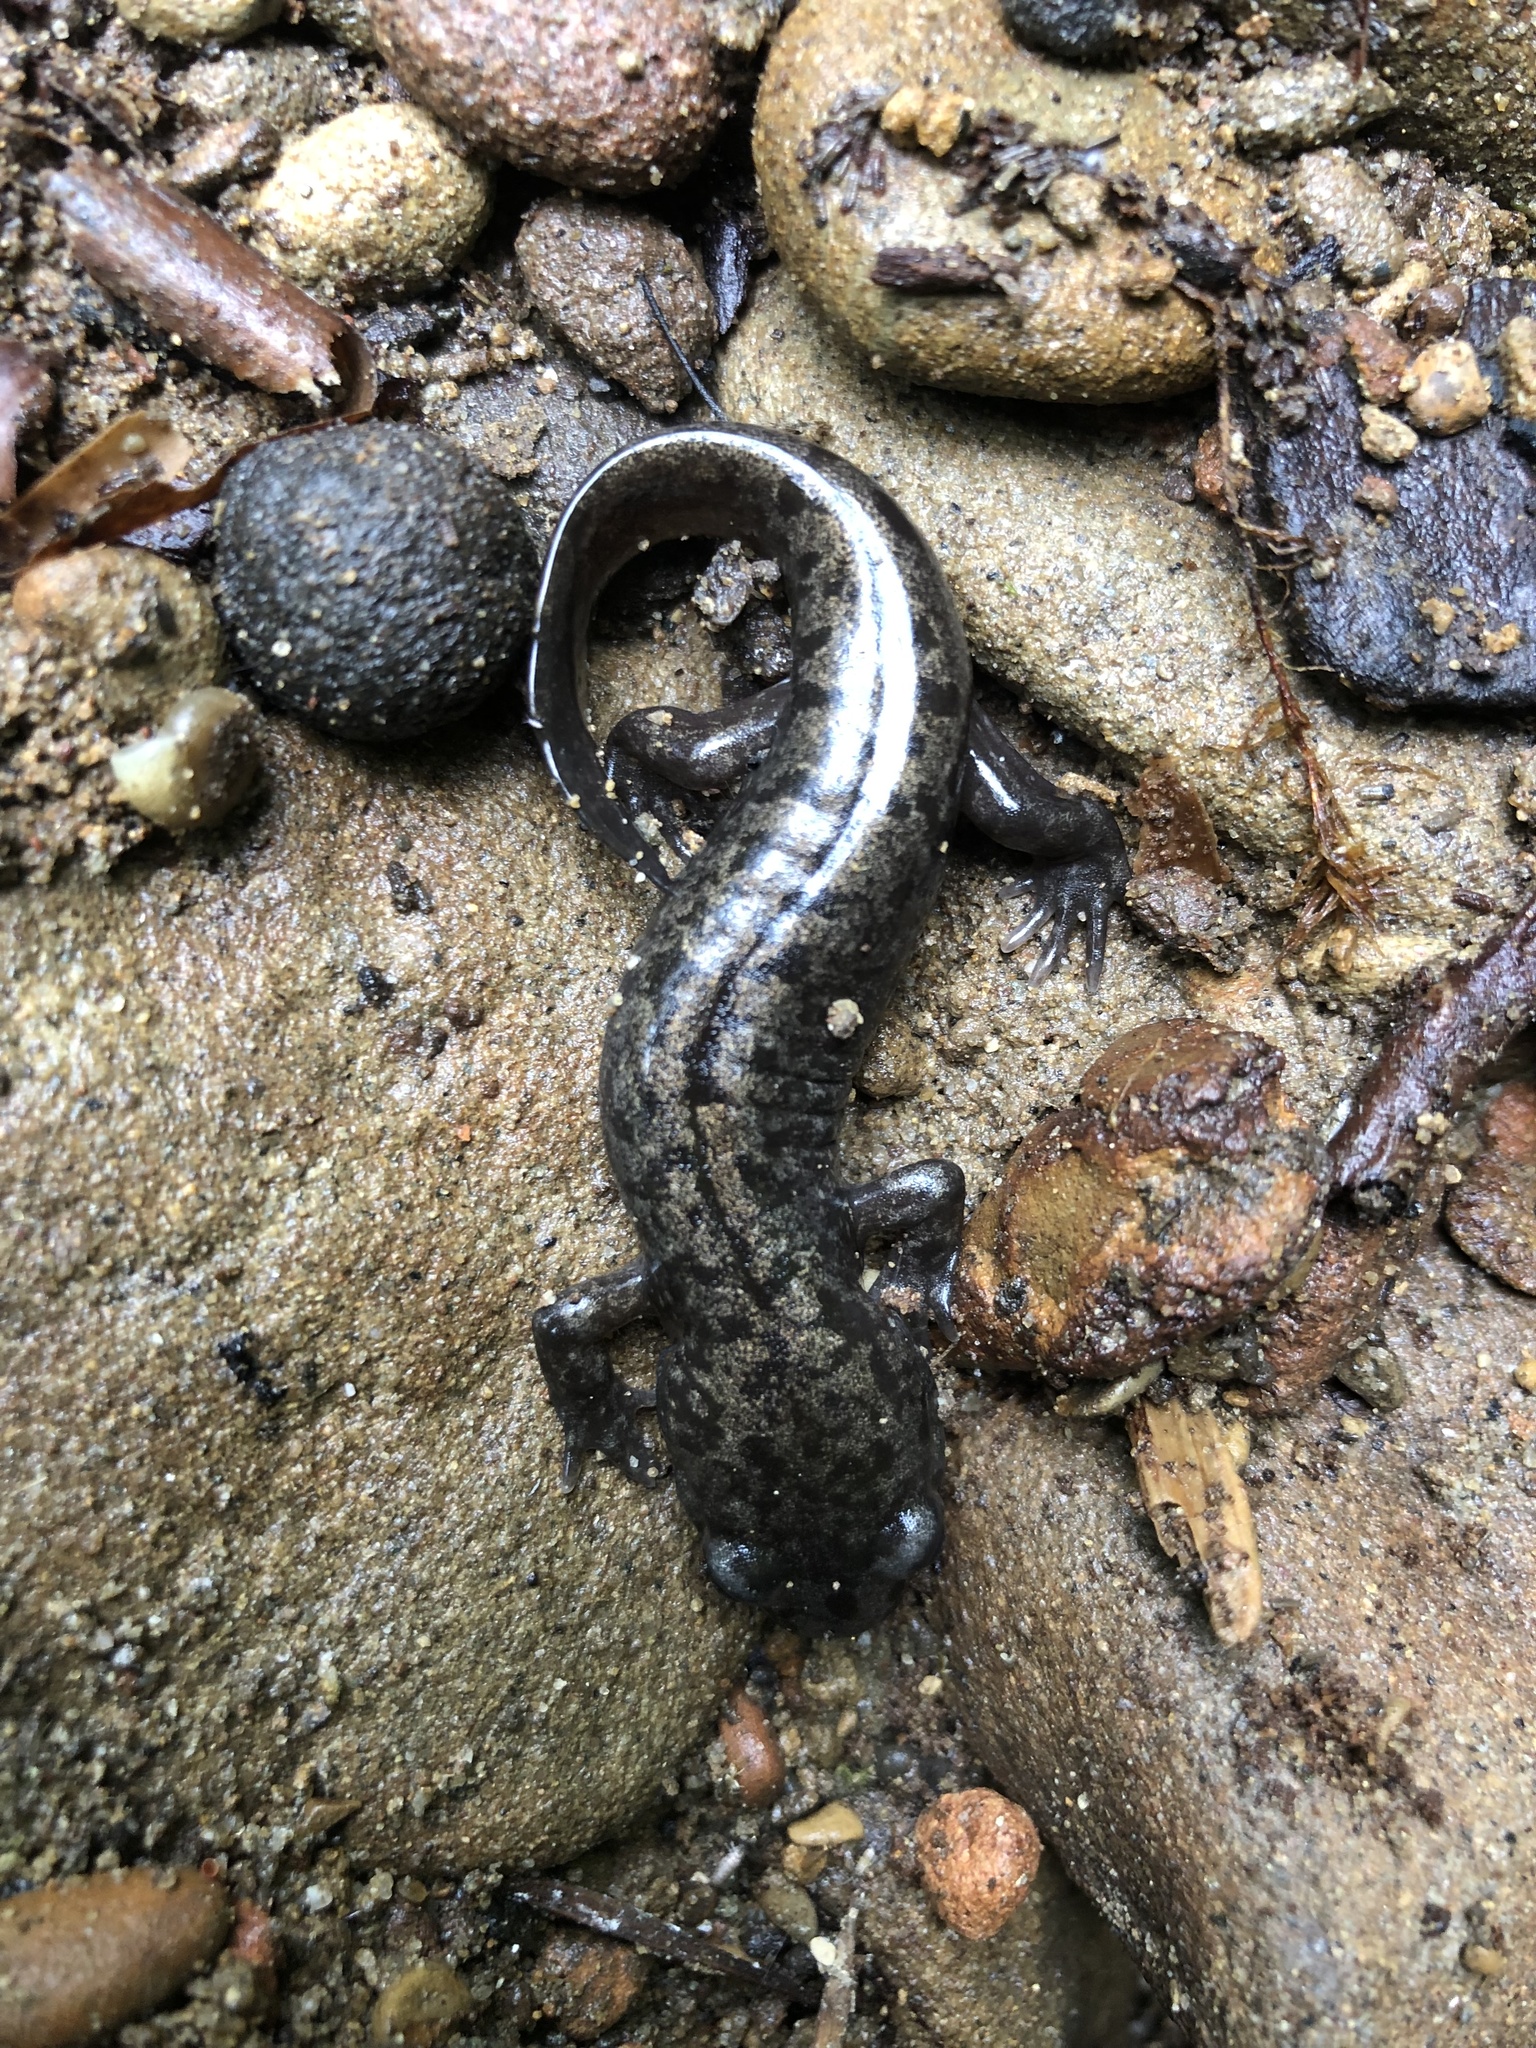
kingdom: Animalia
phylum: Chordata
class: Amphibia
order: Caudata
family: Ambystomatidae
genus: Dicamptodon
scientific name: Dicamptodon tenebrosus
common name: Coastal giant salamander
